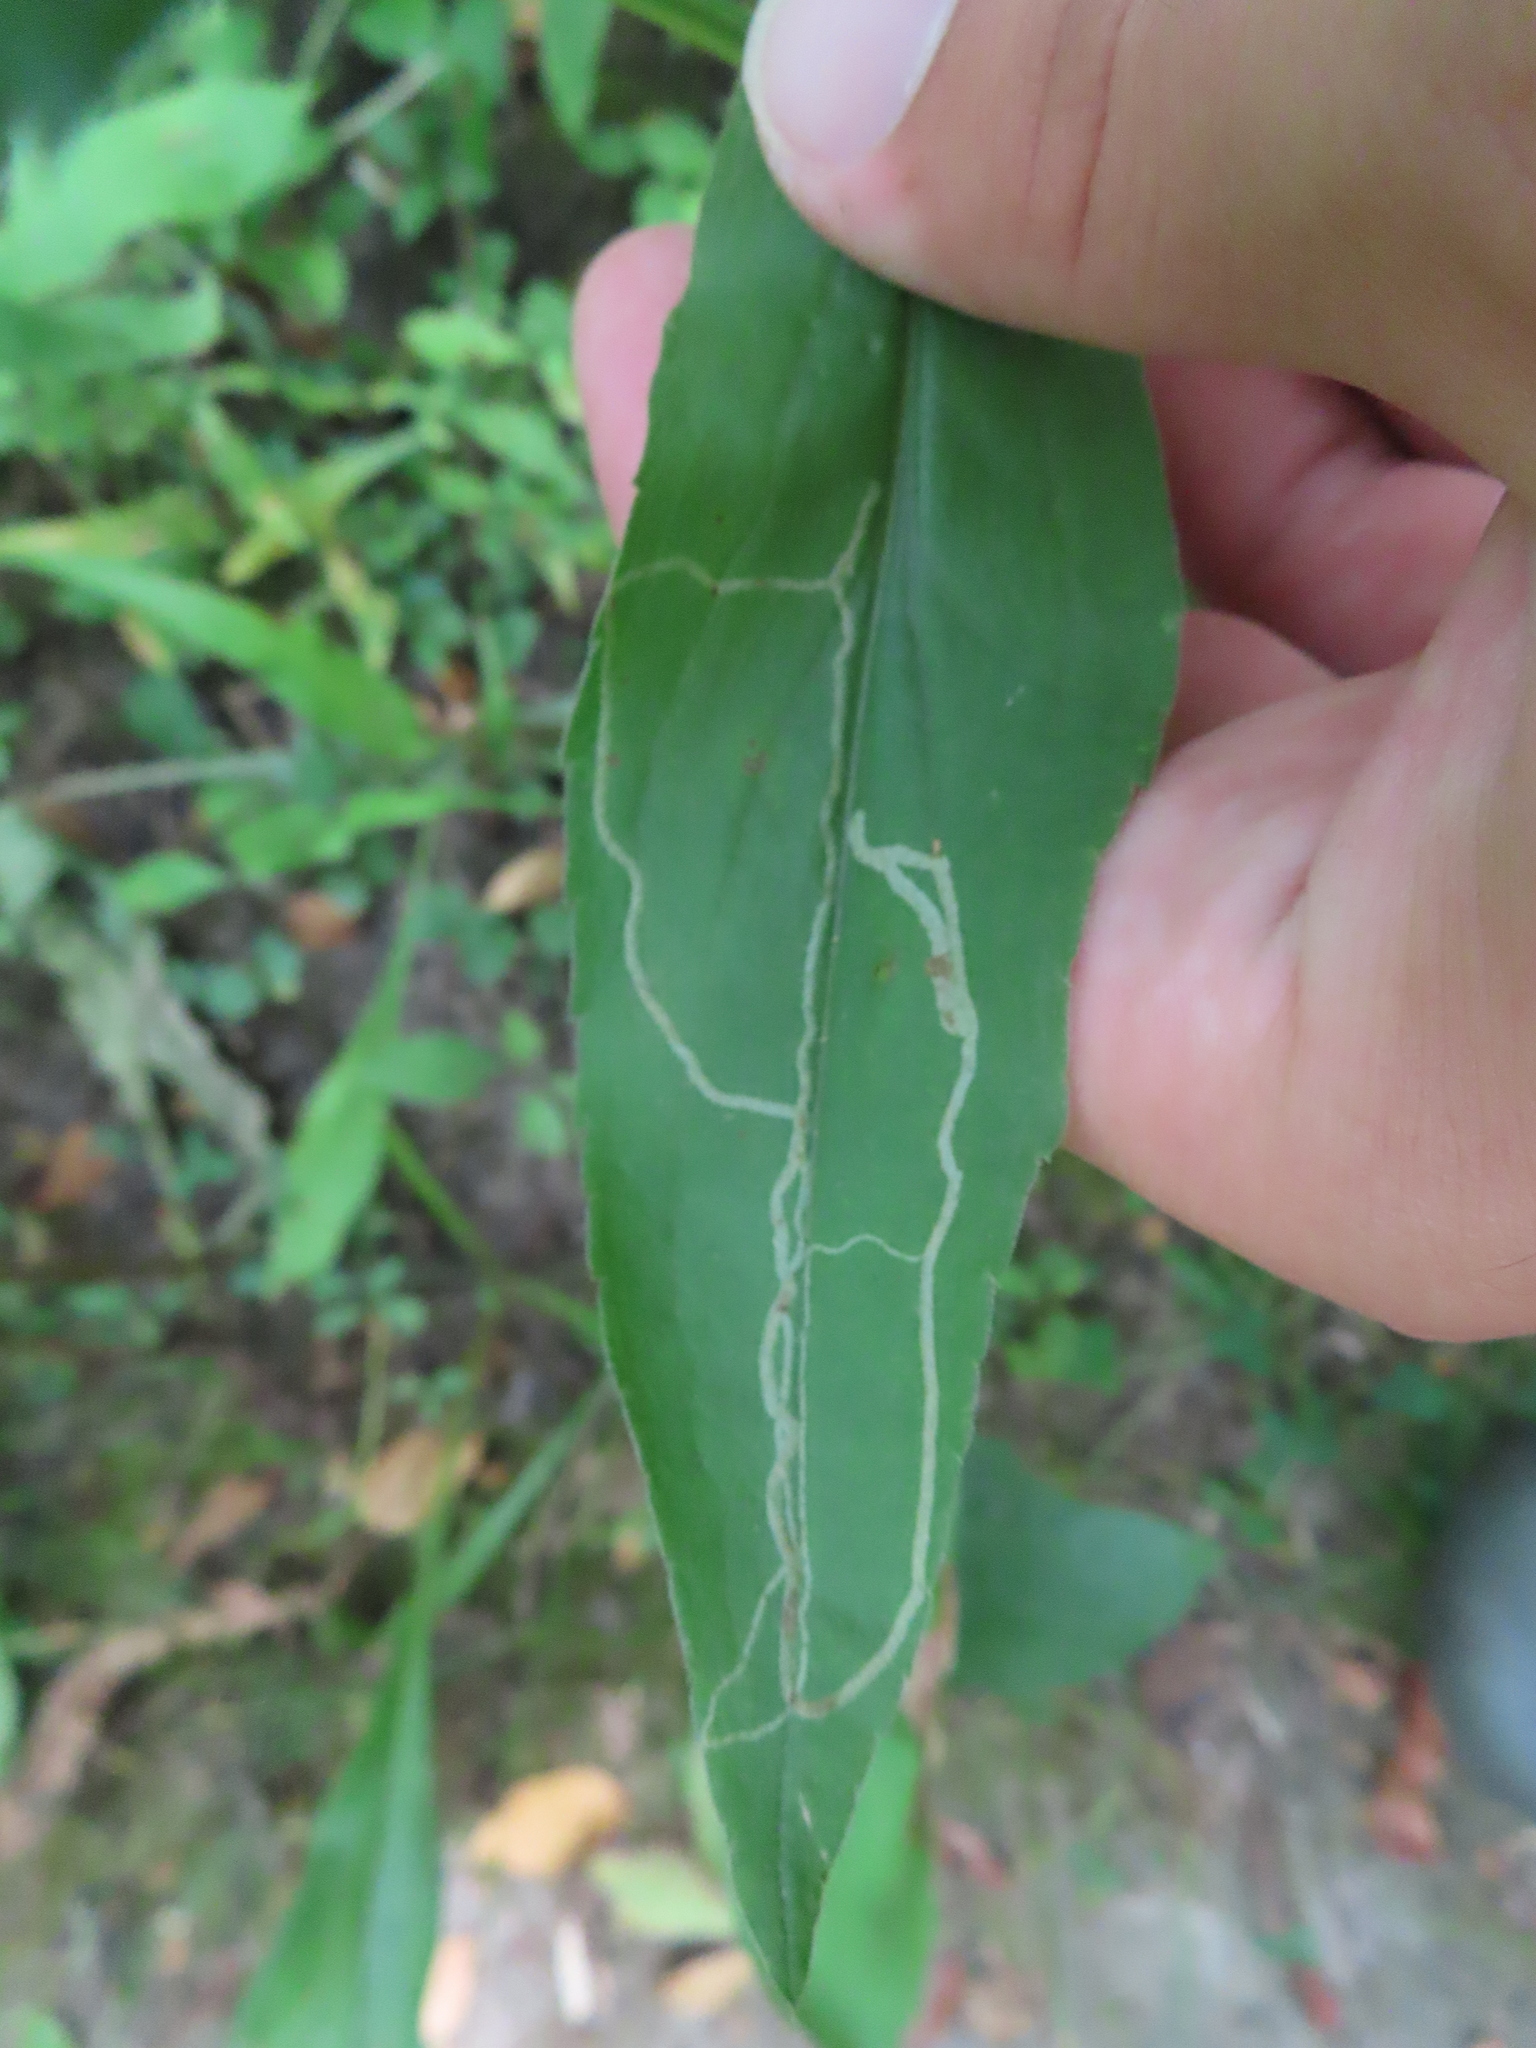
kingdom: Animalia
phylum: Arthropoda
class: Insecta
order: Diptera
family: Agromyzidae
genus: Ophiomyia
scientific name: Ophiomyia maura
